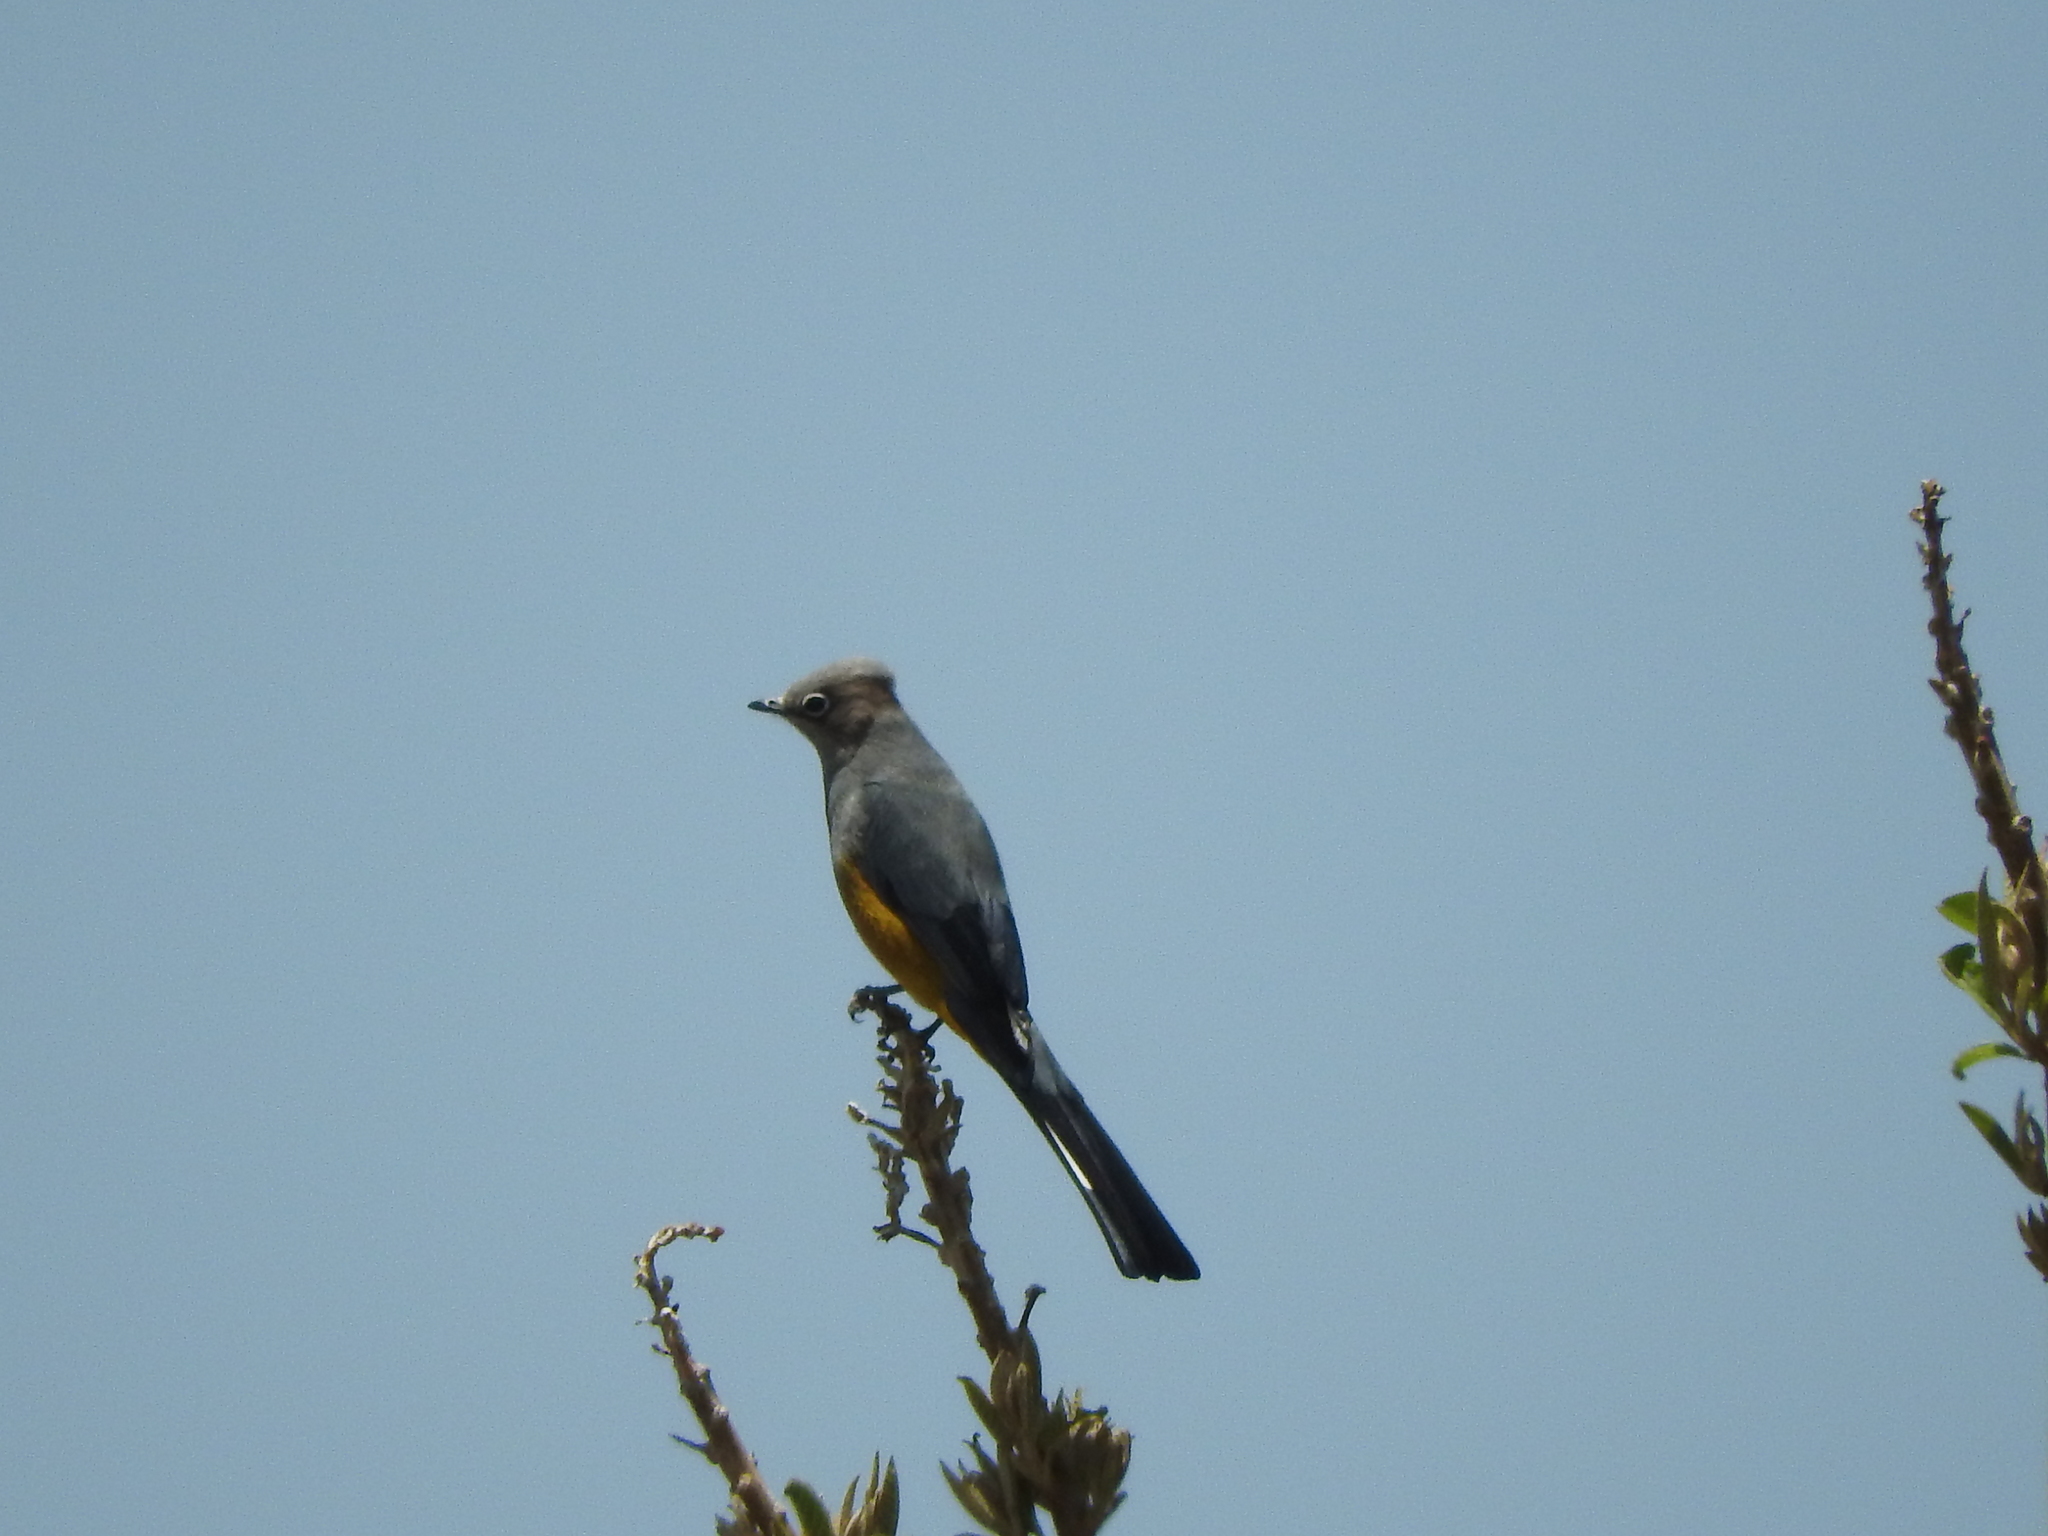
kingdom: Animalia
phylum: Chordata
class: Aves
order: Passeriformes
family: Ptilogonatidae
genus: Ptilogonys
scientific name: Ptilogonys cinereus
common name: Gray silky-flycatcher
